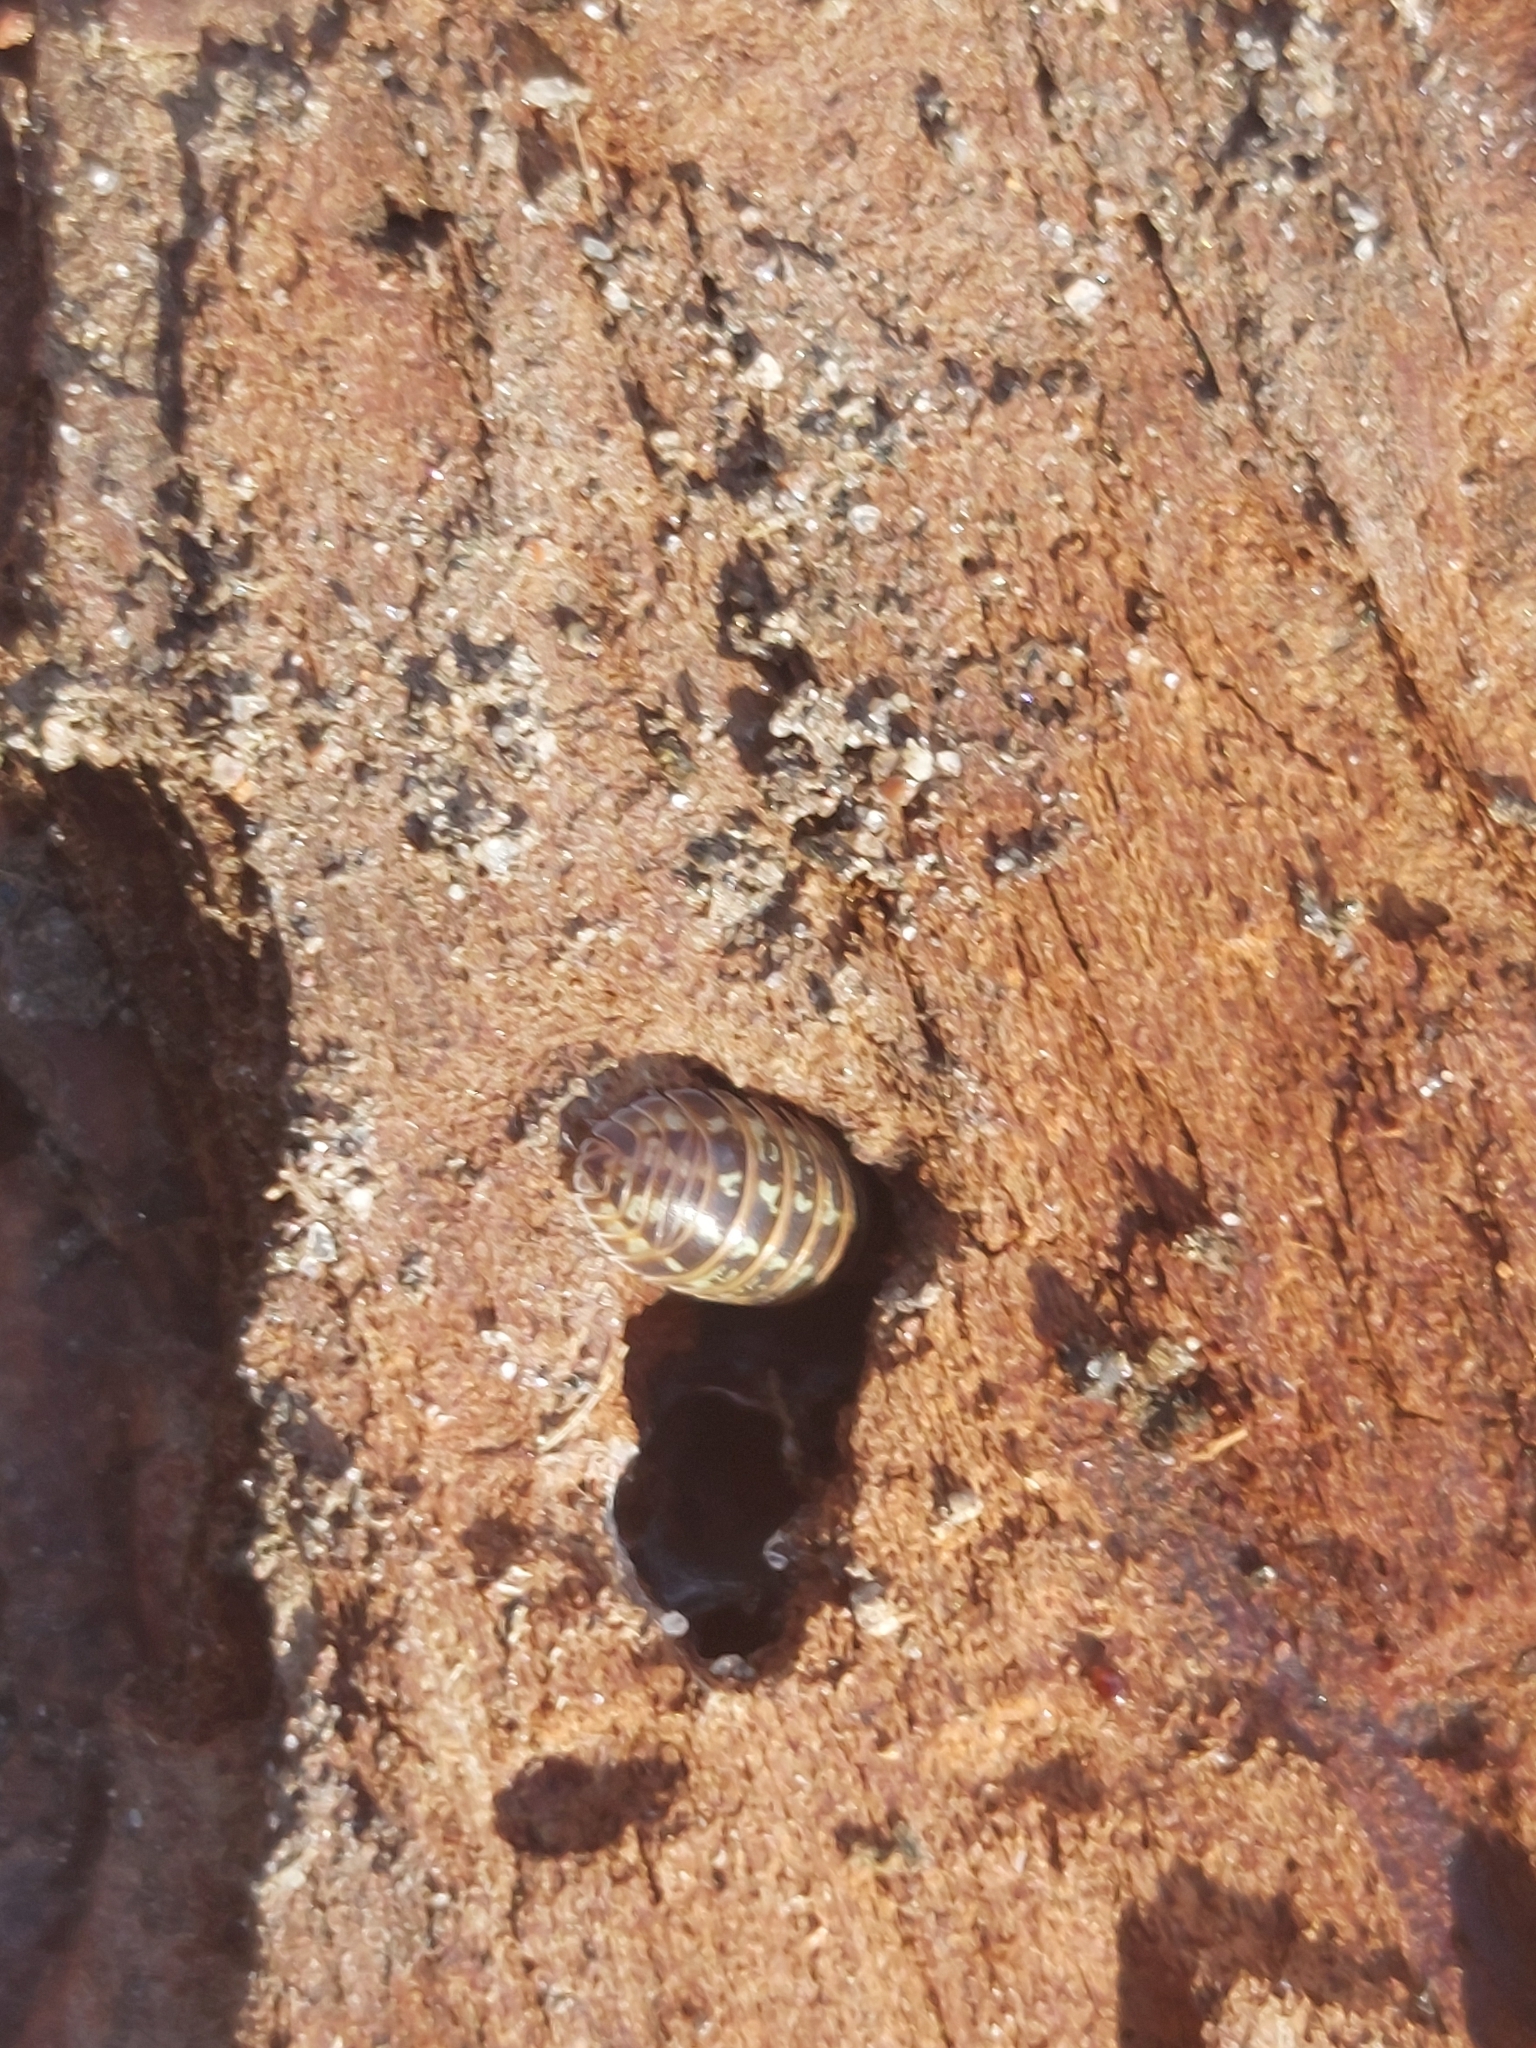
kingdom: Animalia
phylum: Arthropoda
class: Malacostraca
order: Isopoda
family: Armadillidiidae
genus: Armadillidium
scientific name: Armadillidium pictum
